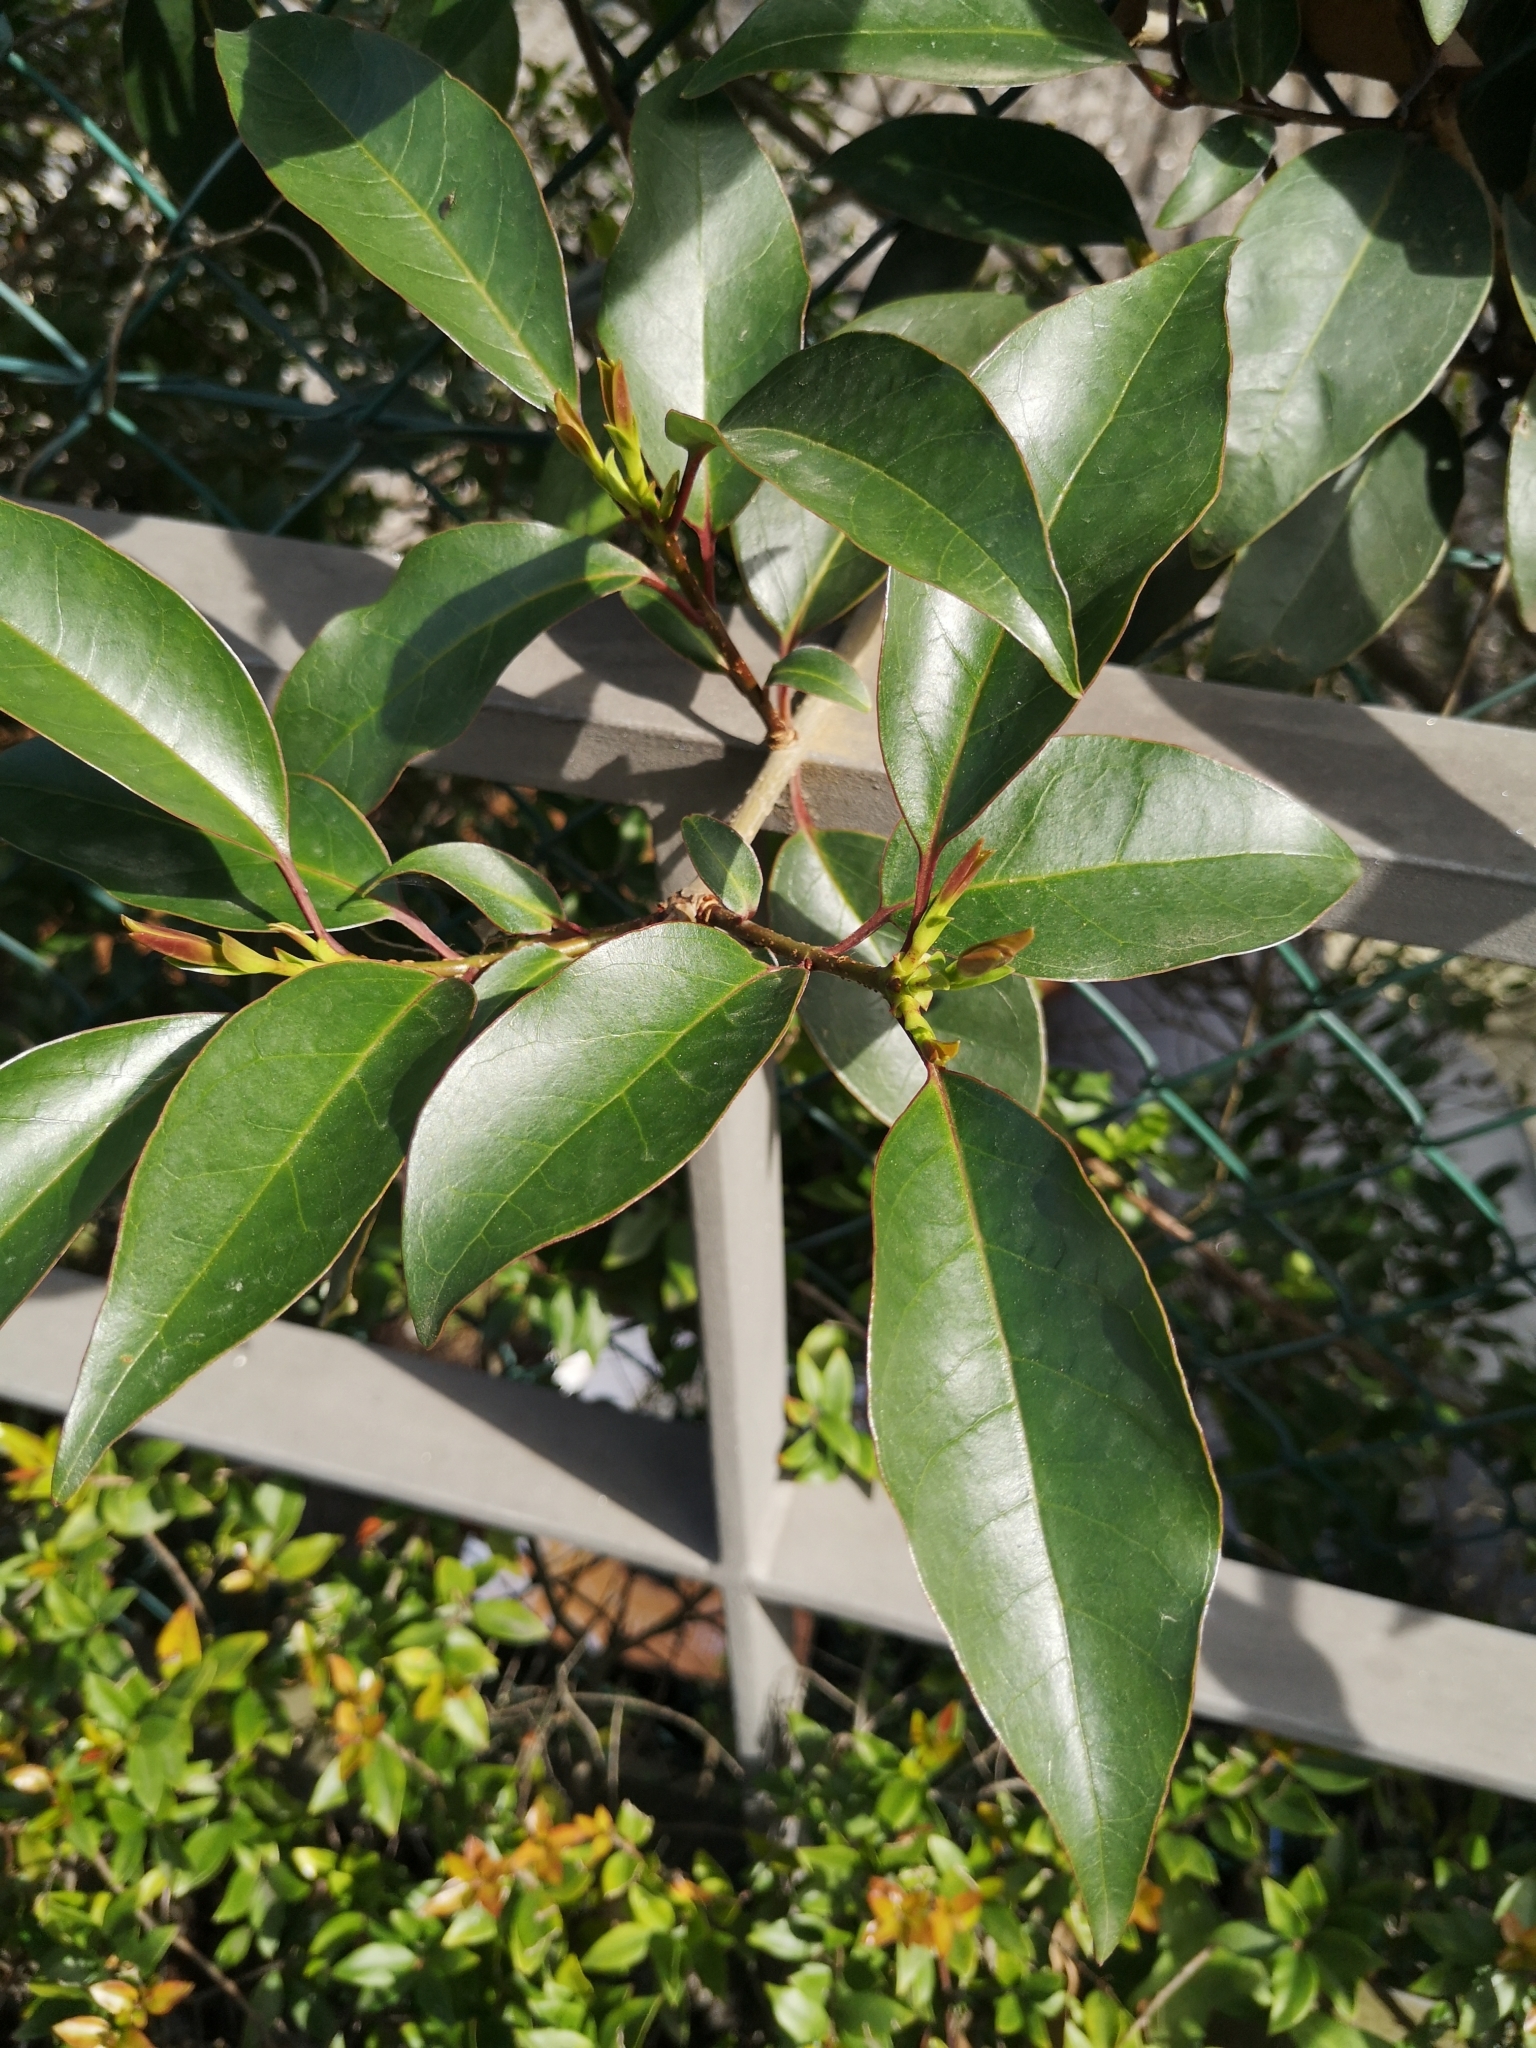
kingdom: Plantae
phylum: Tracheophyta
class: Magnoliopsida
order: Lamiales
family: Oleaceae
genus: Ligustrum
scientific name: Ligustrum lucidum
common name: Glossy privet
